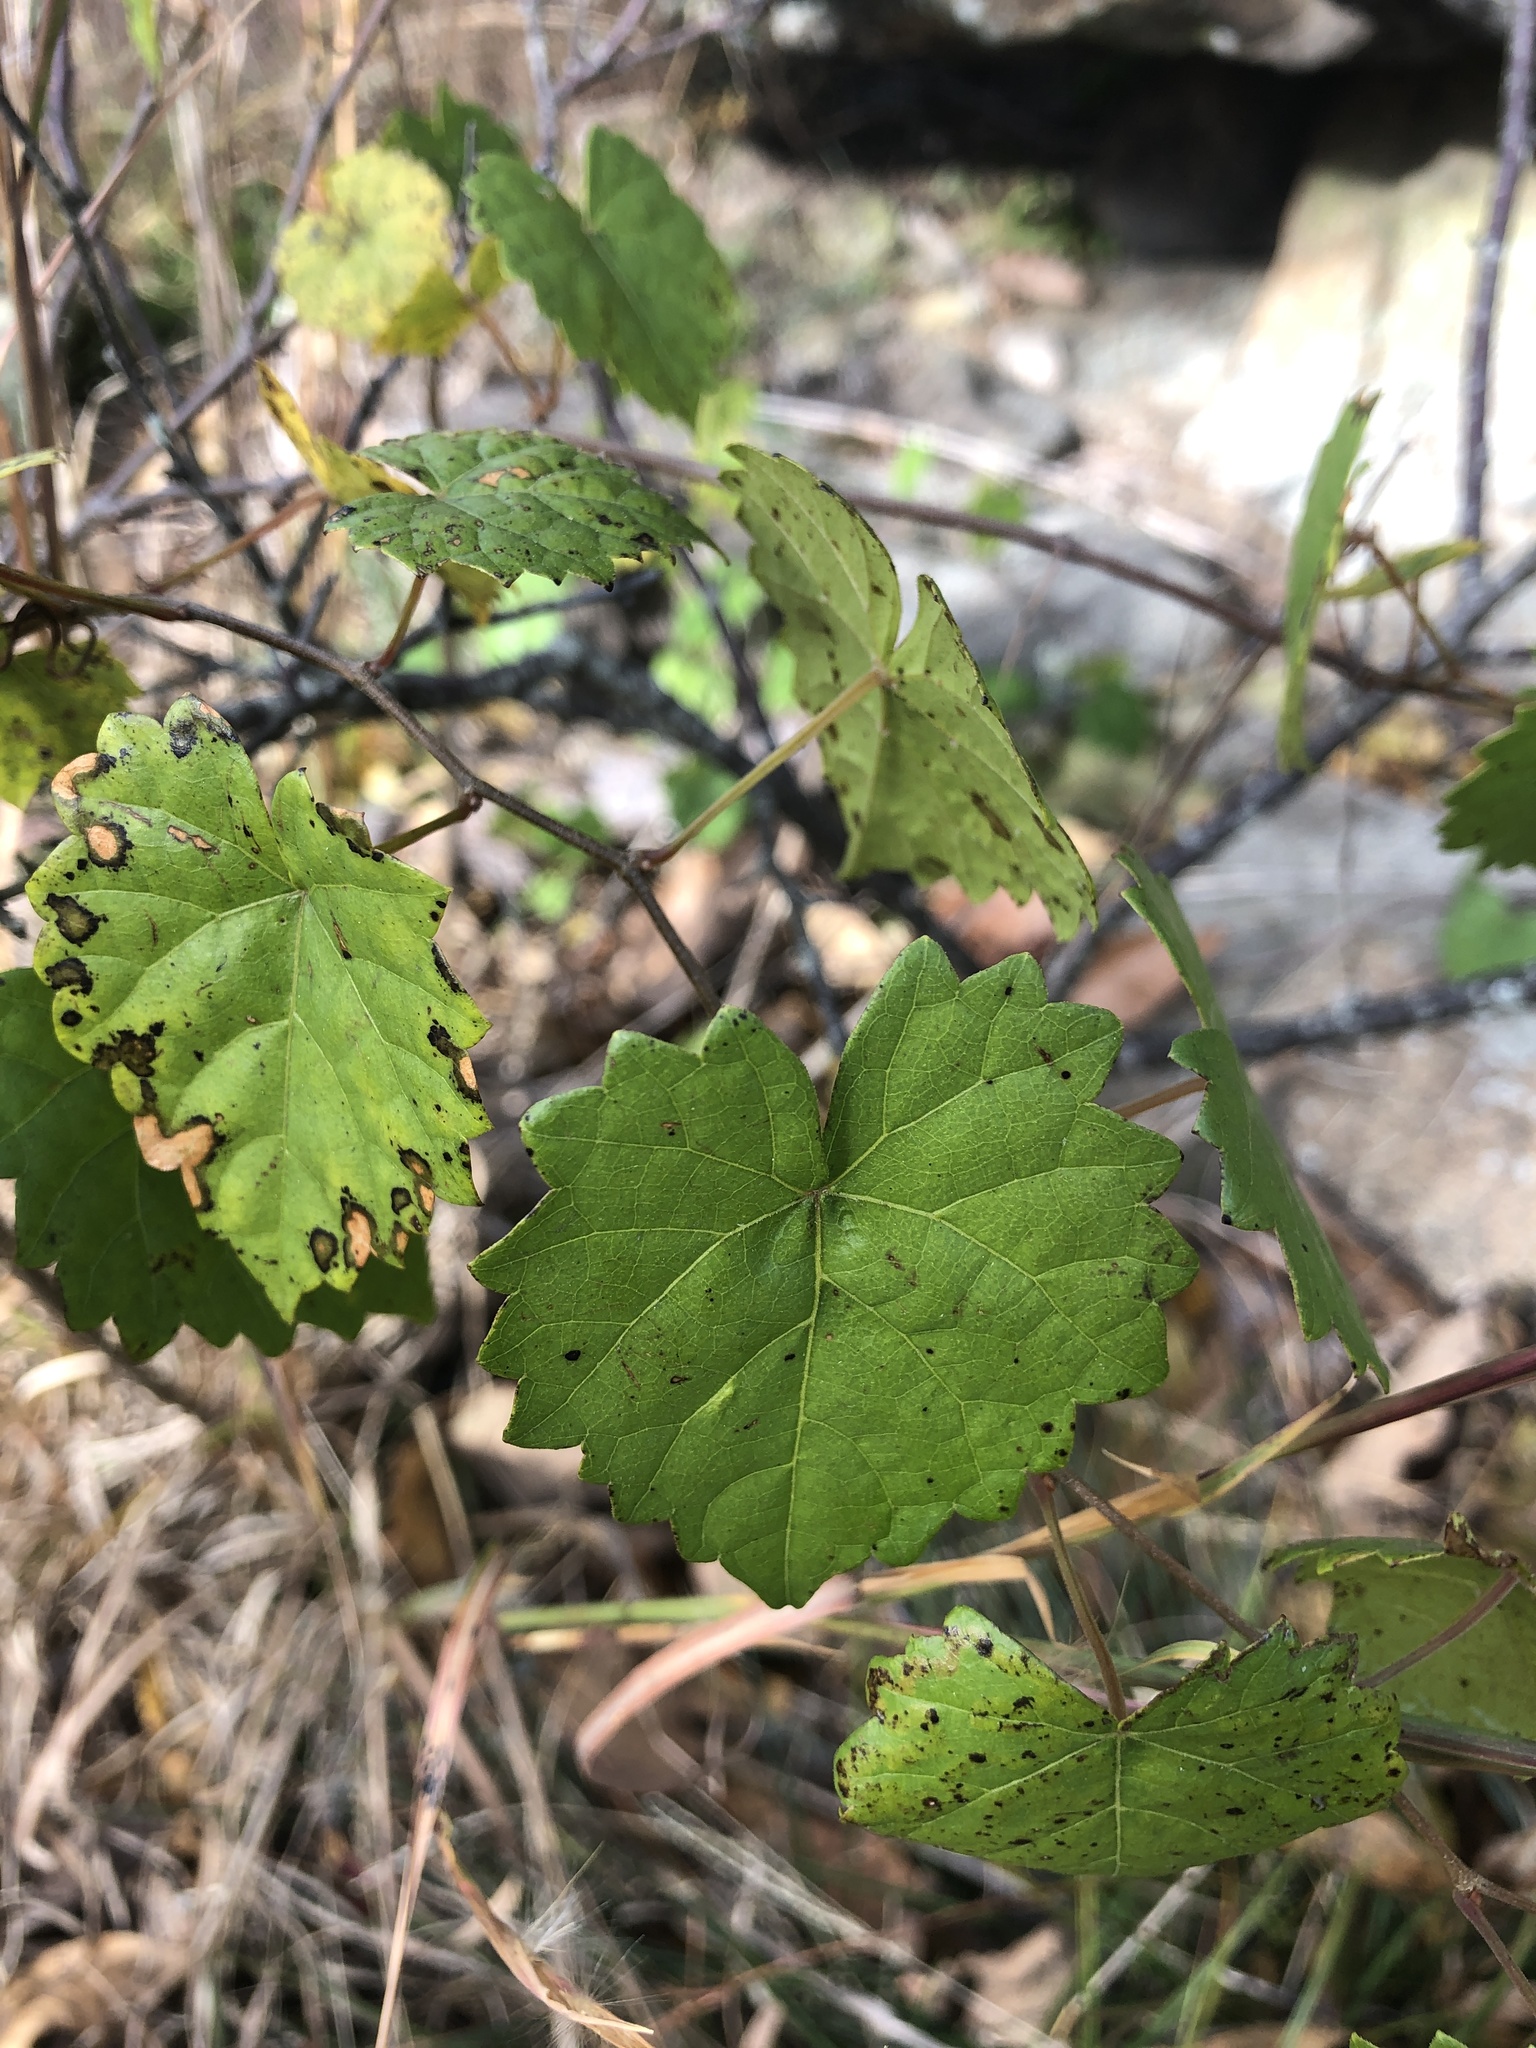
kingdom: Plantae
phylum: Tracheophyta
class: Magnoliopsida
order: Vitales
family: Vitaceae
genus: Vitis
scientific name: Vitis rotundifolia
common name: Muscadine grape
